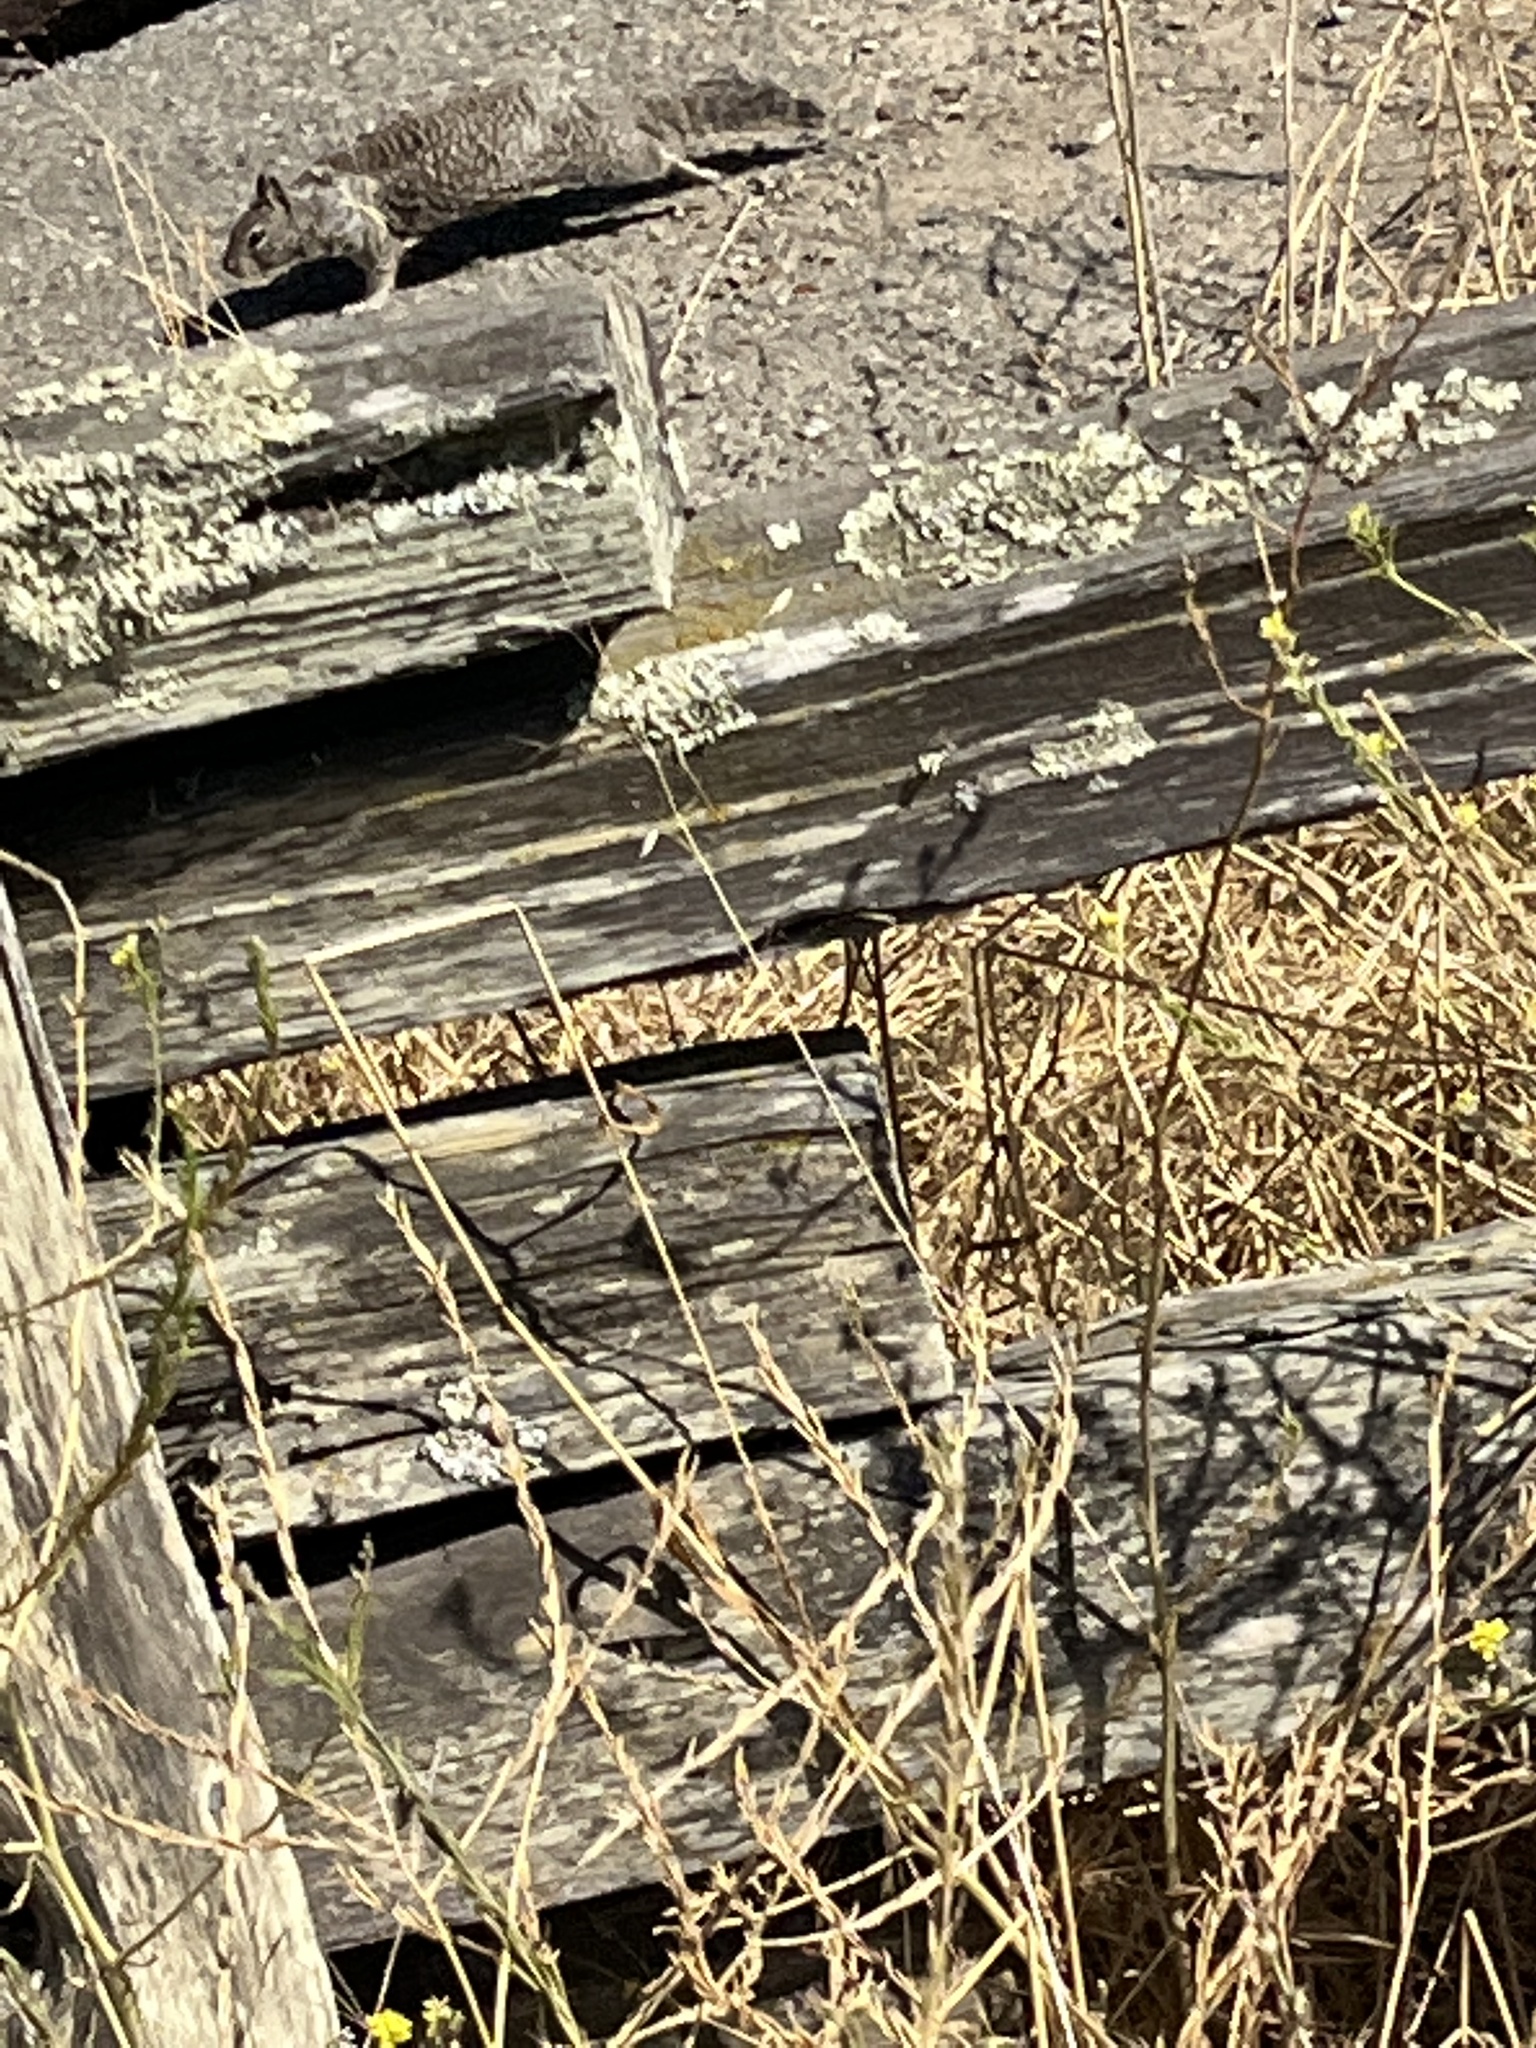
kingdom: Animalia
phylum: Chordata
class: Mammalia
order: Rodentia
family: Sciuridae
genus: Otospermophilus
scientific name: Otospermophilus beecheyi
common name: California ground squirrel
